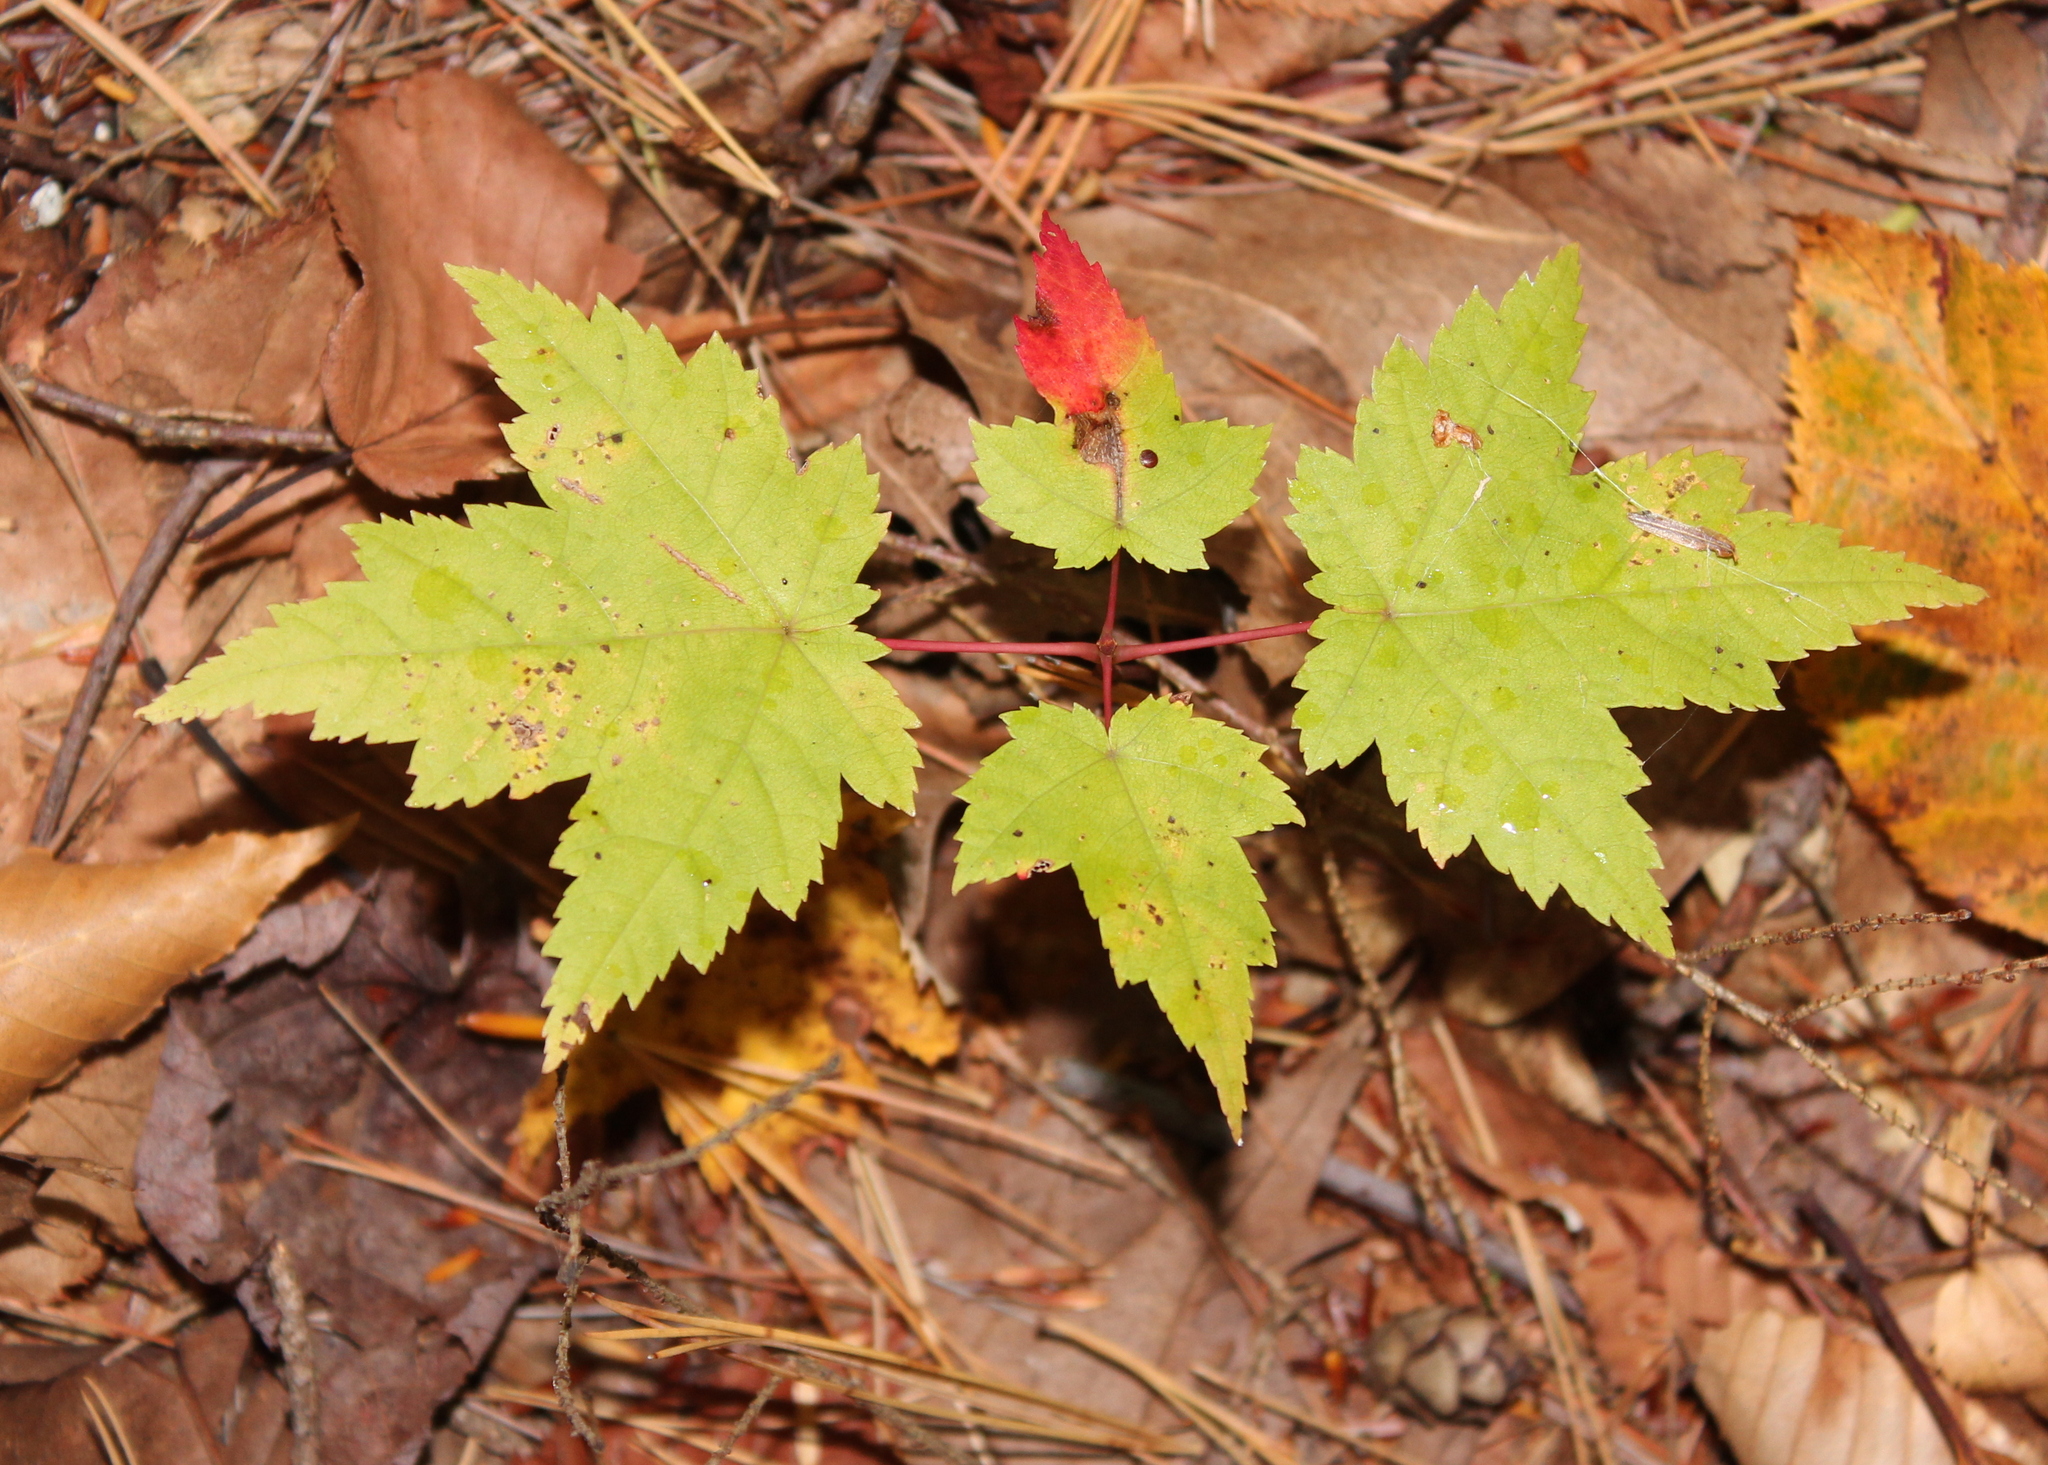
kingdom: Plantae
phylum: Tracheophyta
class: Magnoliopsida
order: Sapindales
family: Sapindaceae
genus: Acer
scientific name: Acer rubrum
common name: Red maple
